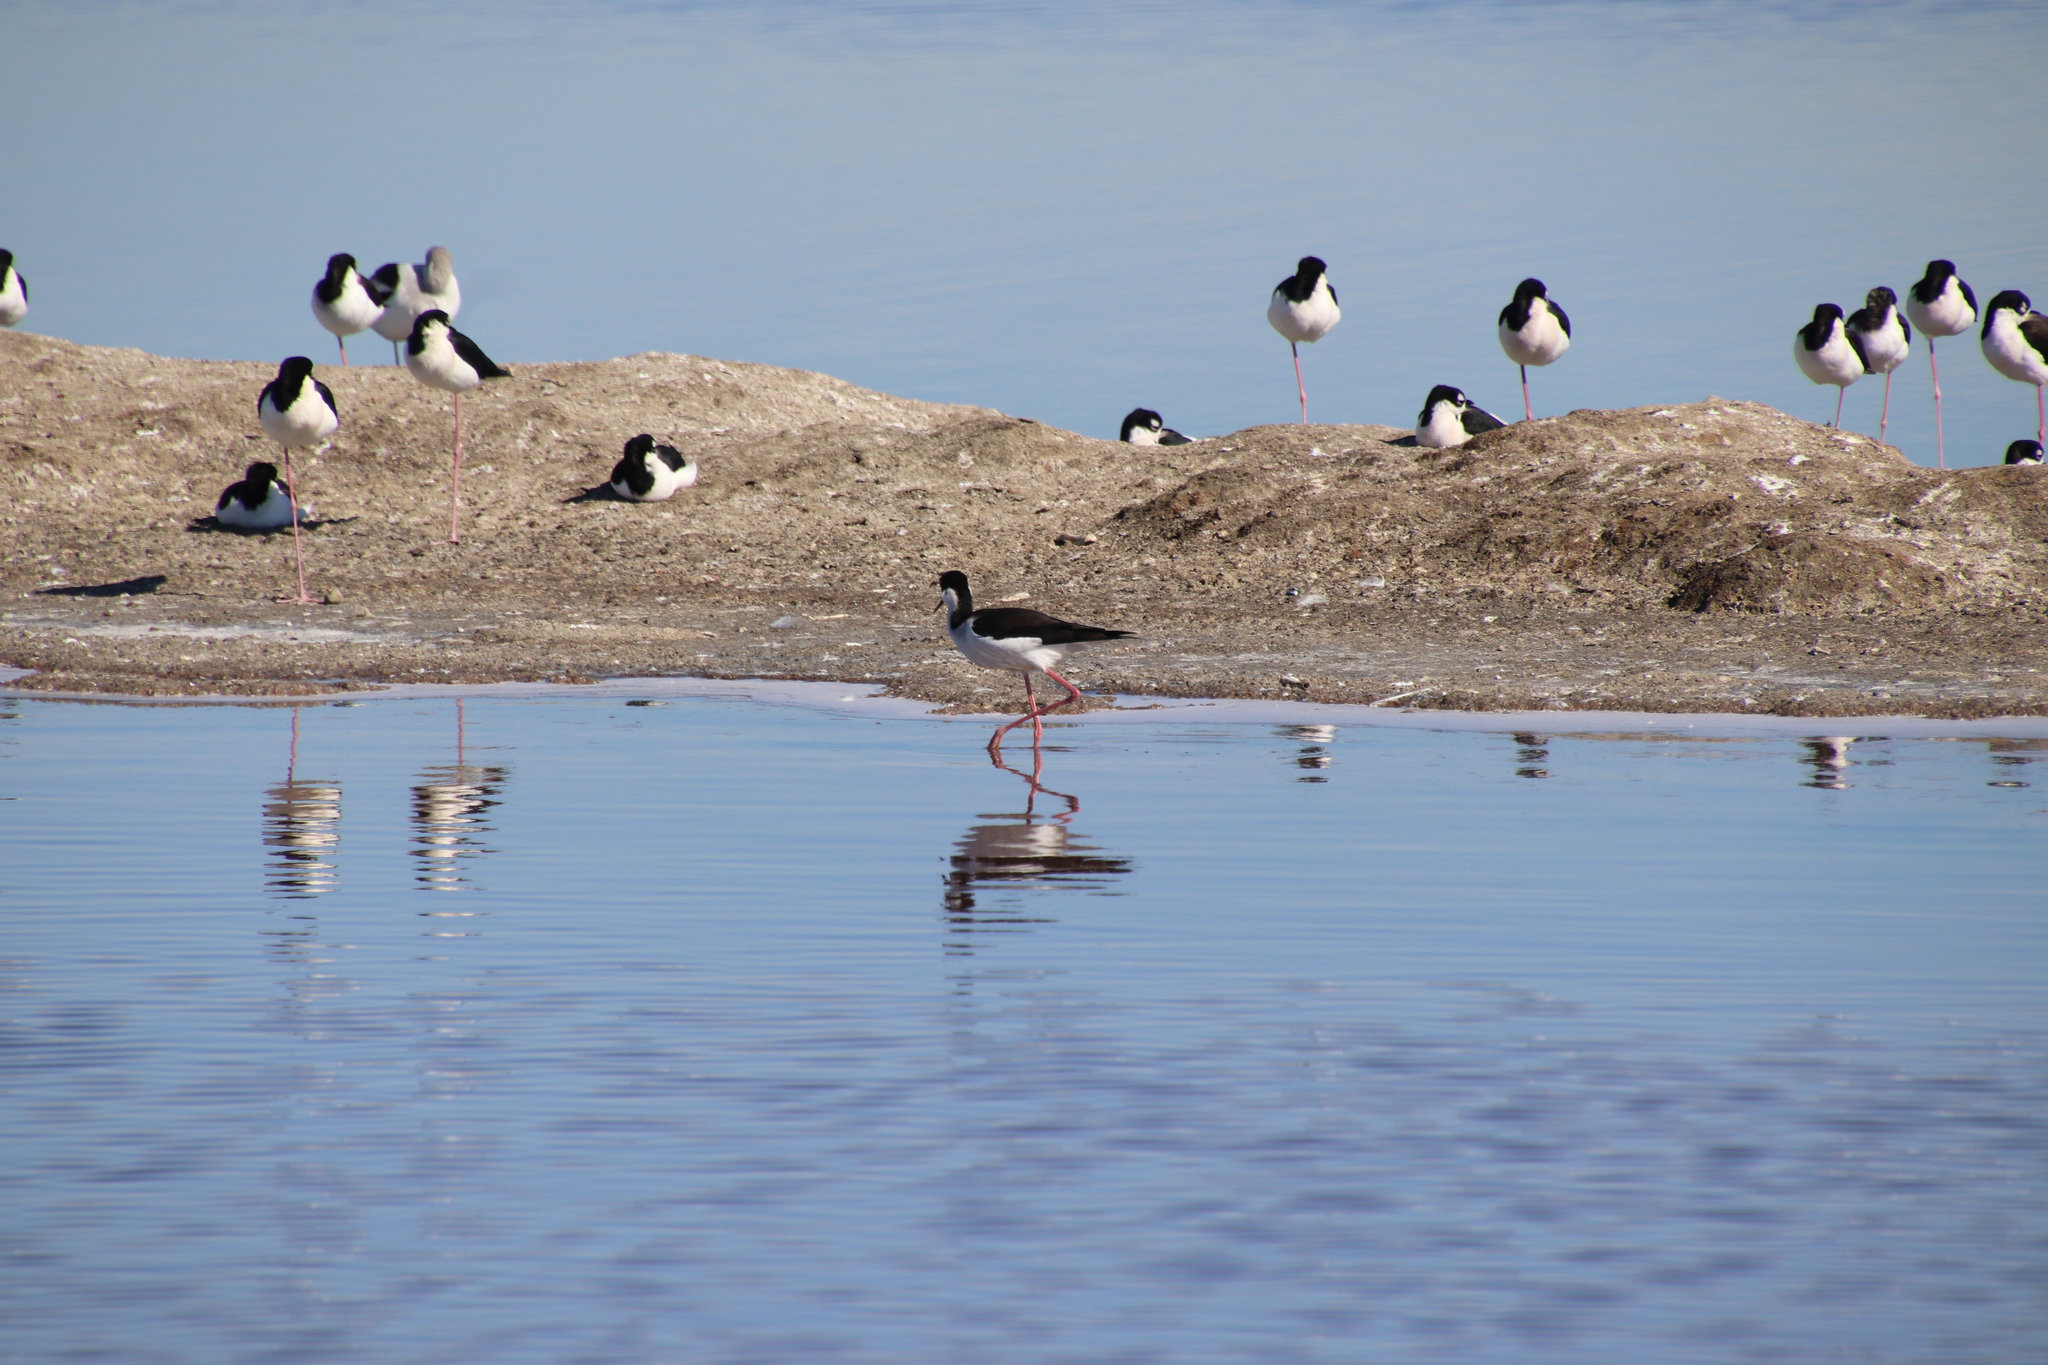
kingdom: Animalia
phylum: Chordata
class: Aves
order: Charadriiformes
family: Recurvirostridae
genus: Himantopus
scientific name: Himantopus mexicanus
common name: Black-necked stilt
